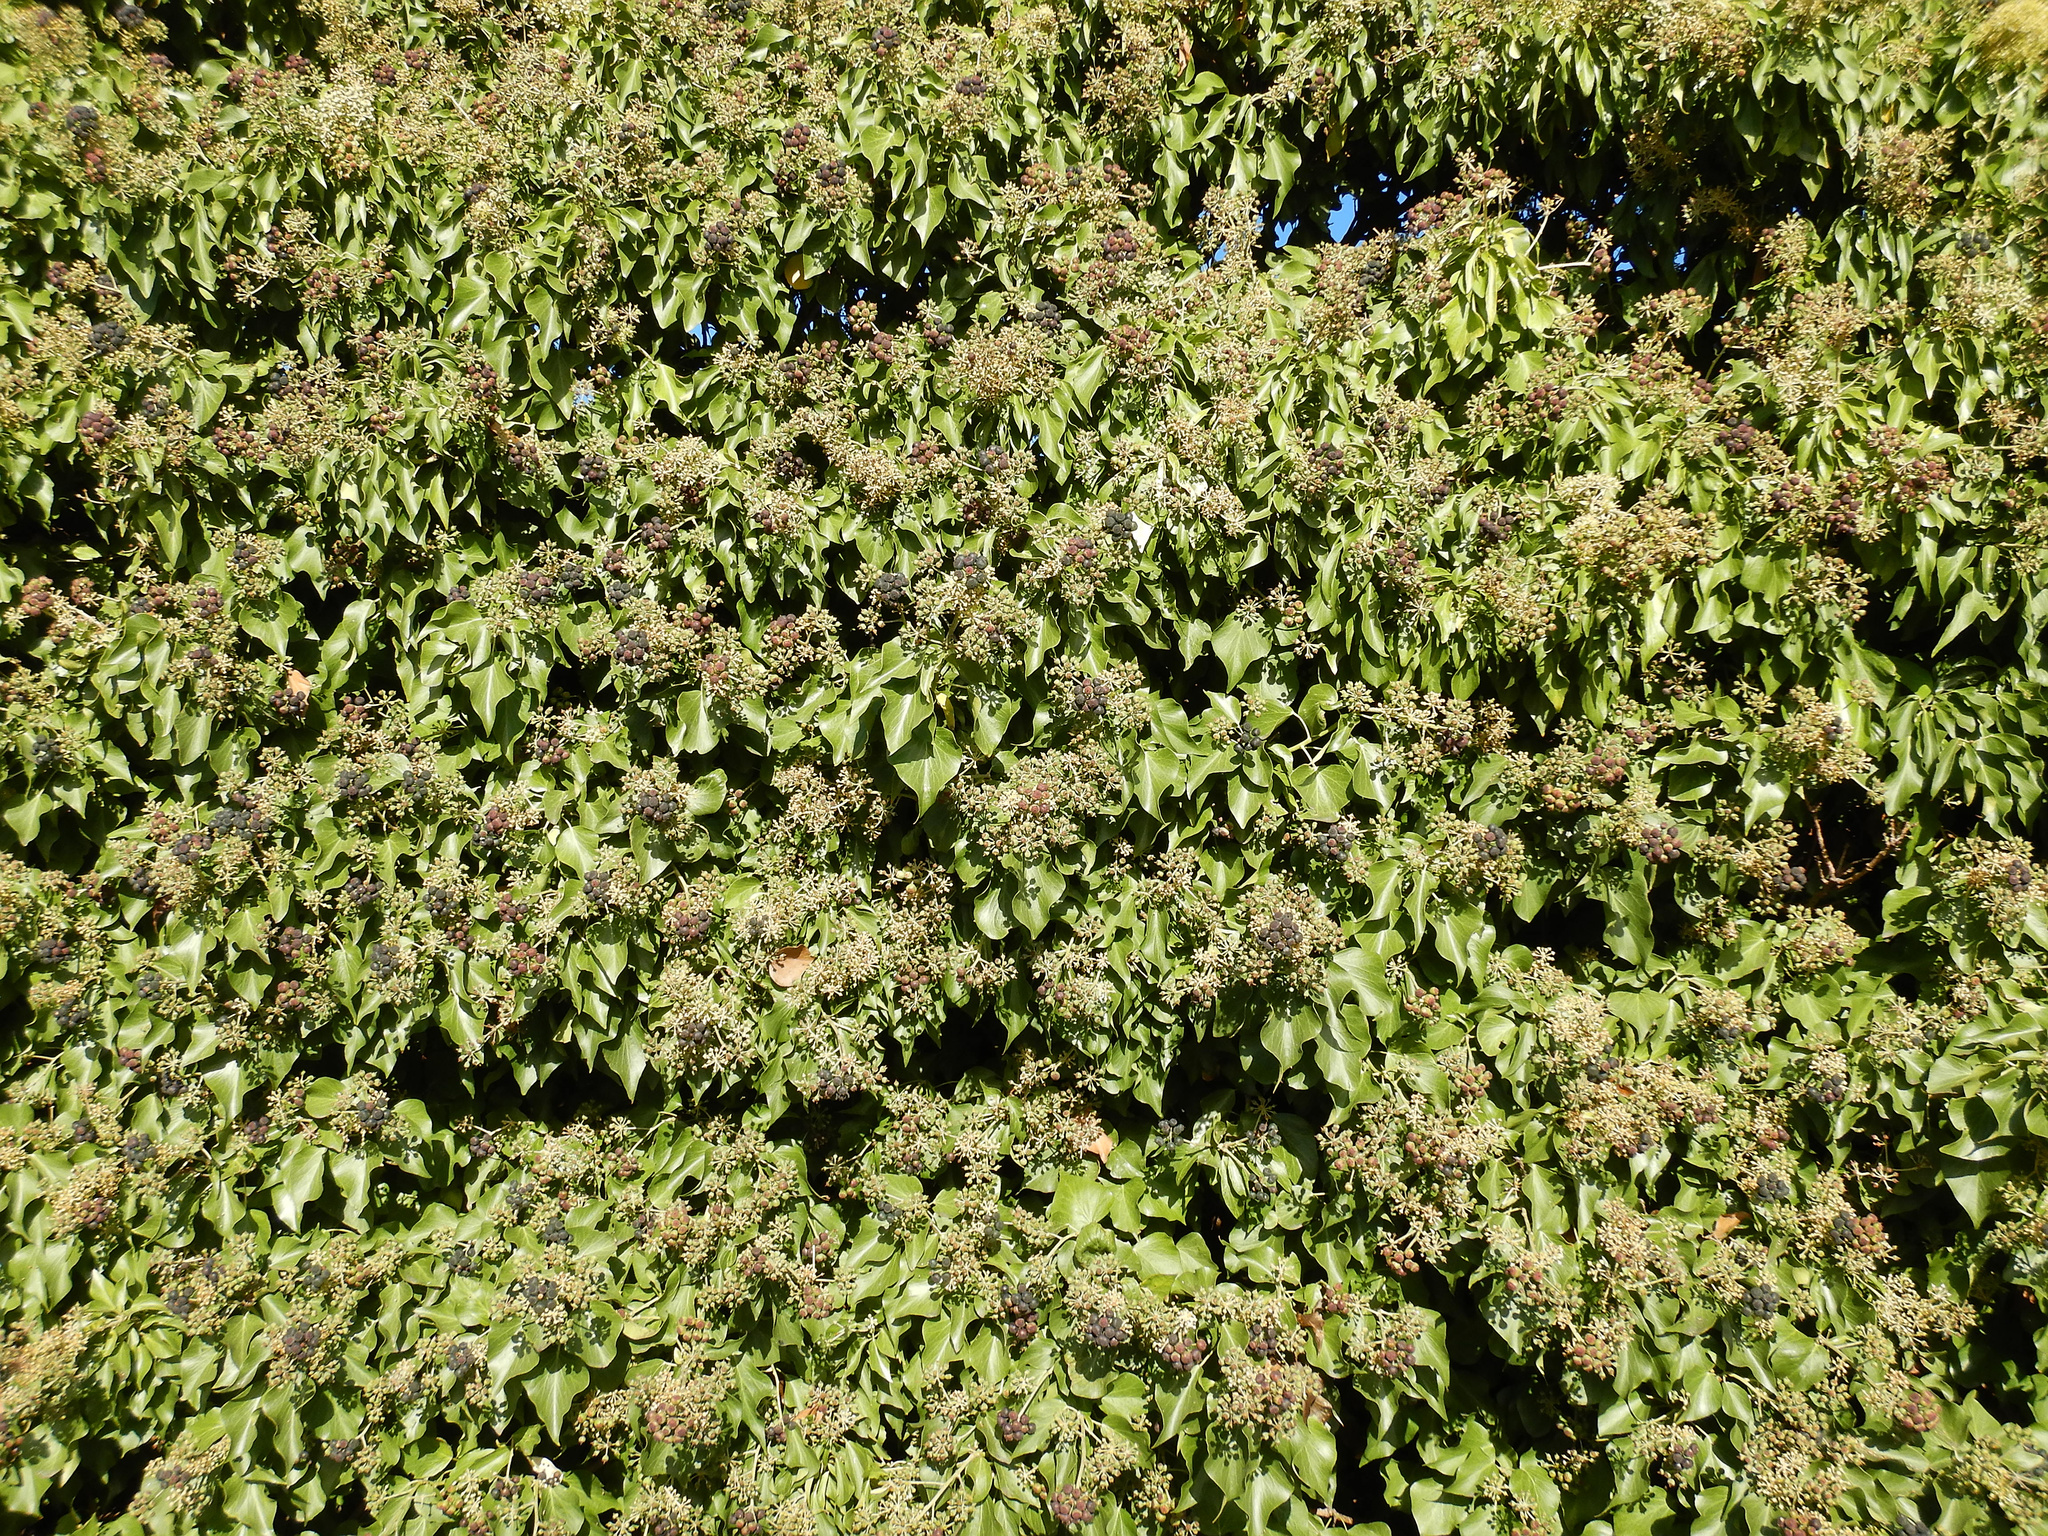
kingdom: Plantae
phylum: Tracheophyta
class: Magnoliopsida
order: Apiales
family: Araliaceae
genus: Hedera
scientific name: Hedera helix
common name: Ivy
